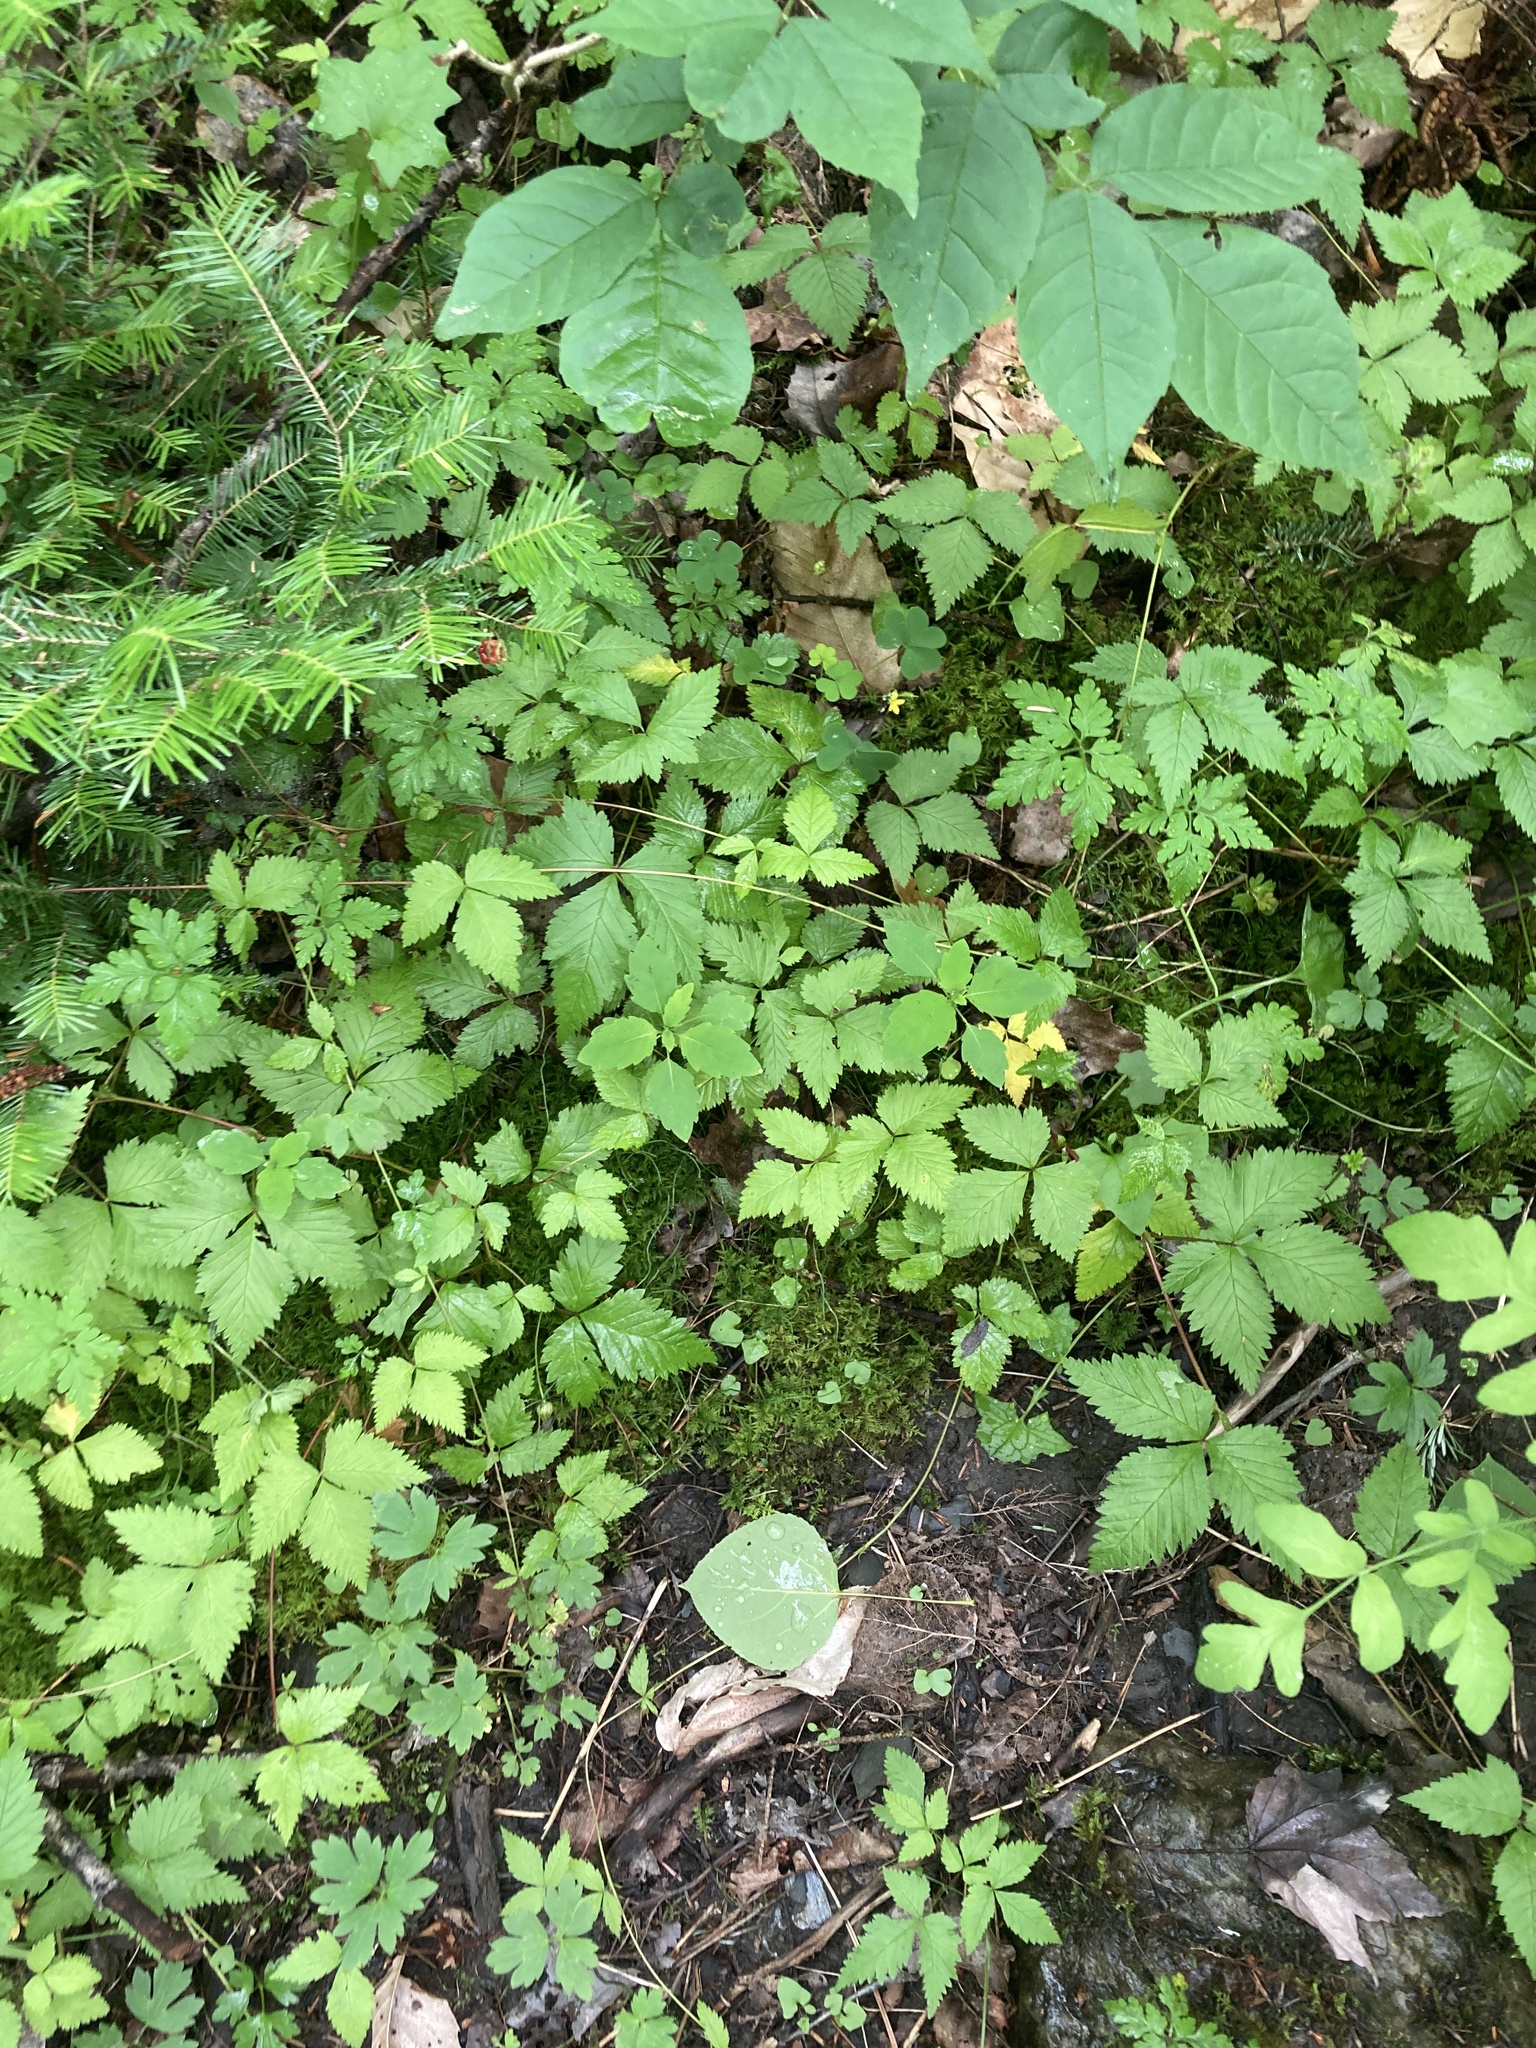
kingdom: Plantae
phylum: Tracheophyta
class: Magnoliopsida
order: Rosales
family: Rosaceae
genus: Rubus
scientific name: Rubus pubescens
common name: Dwarf raspberry
